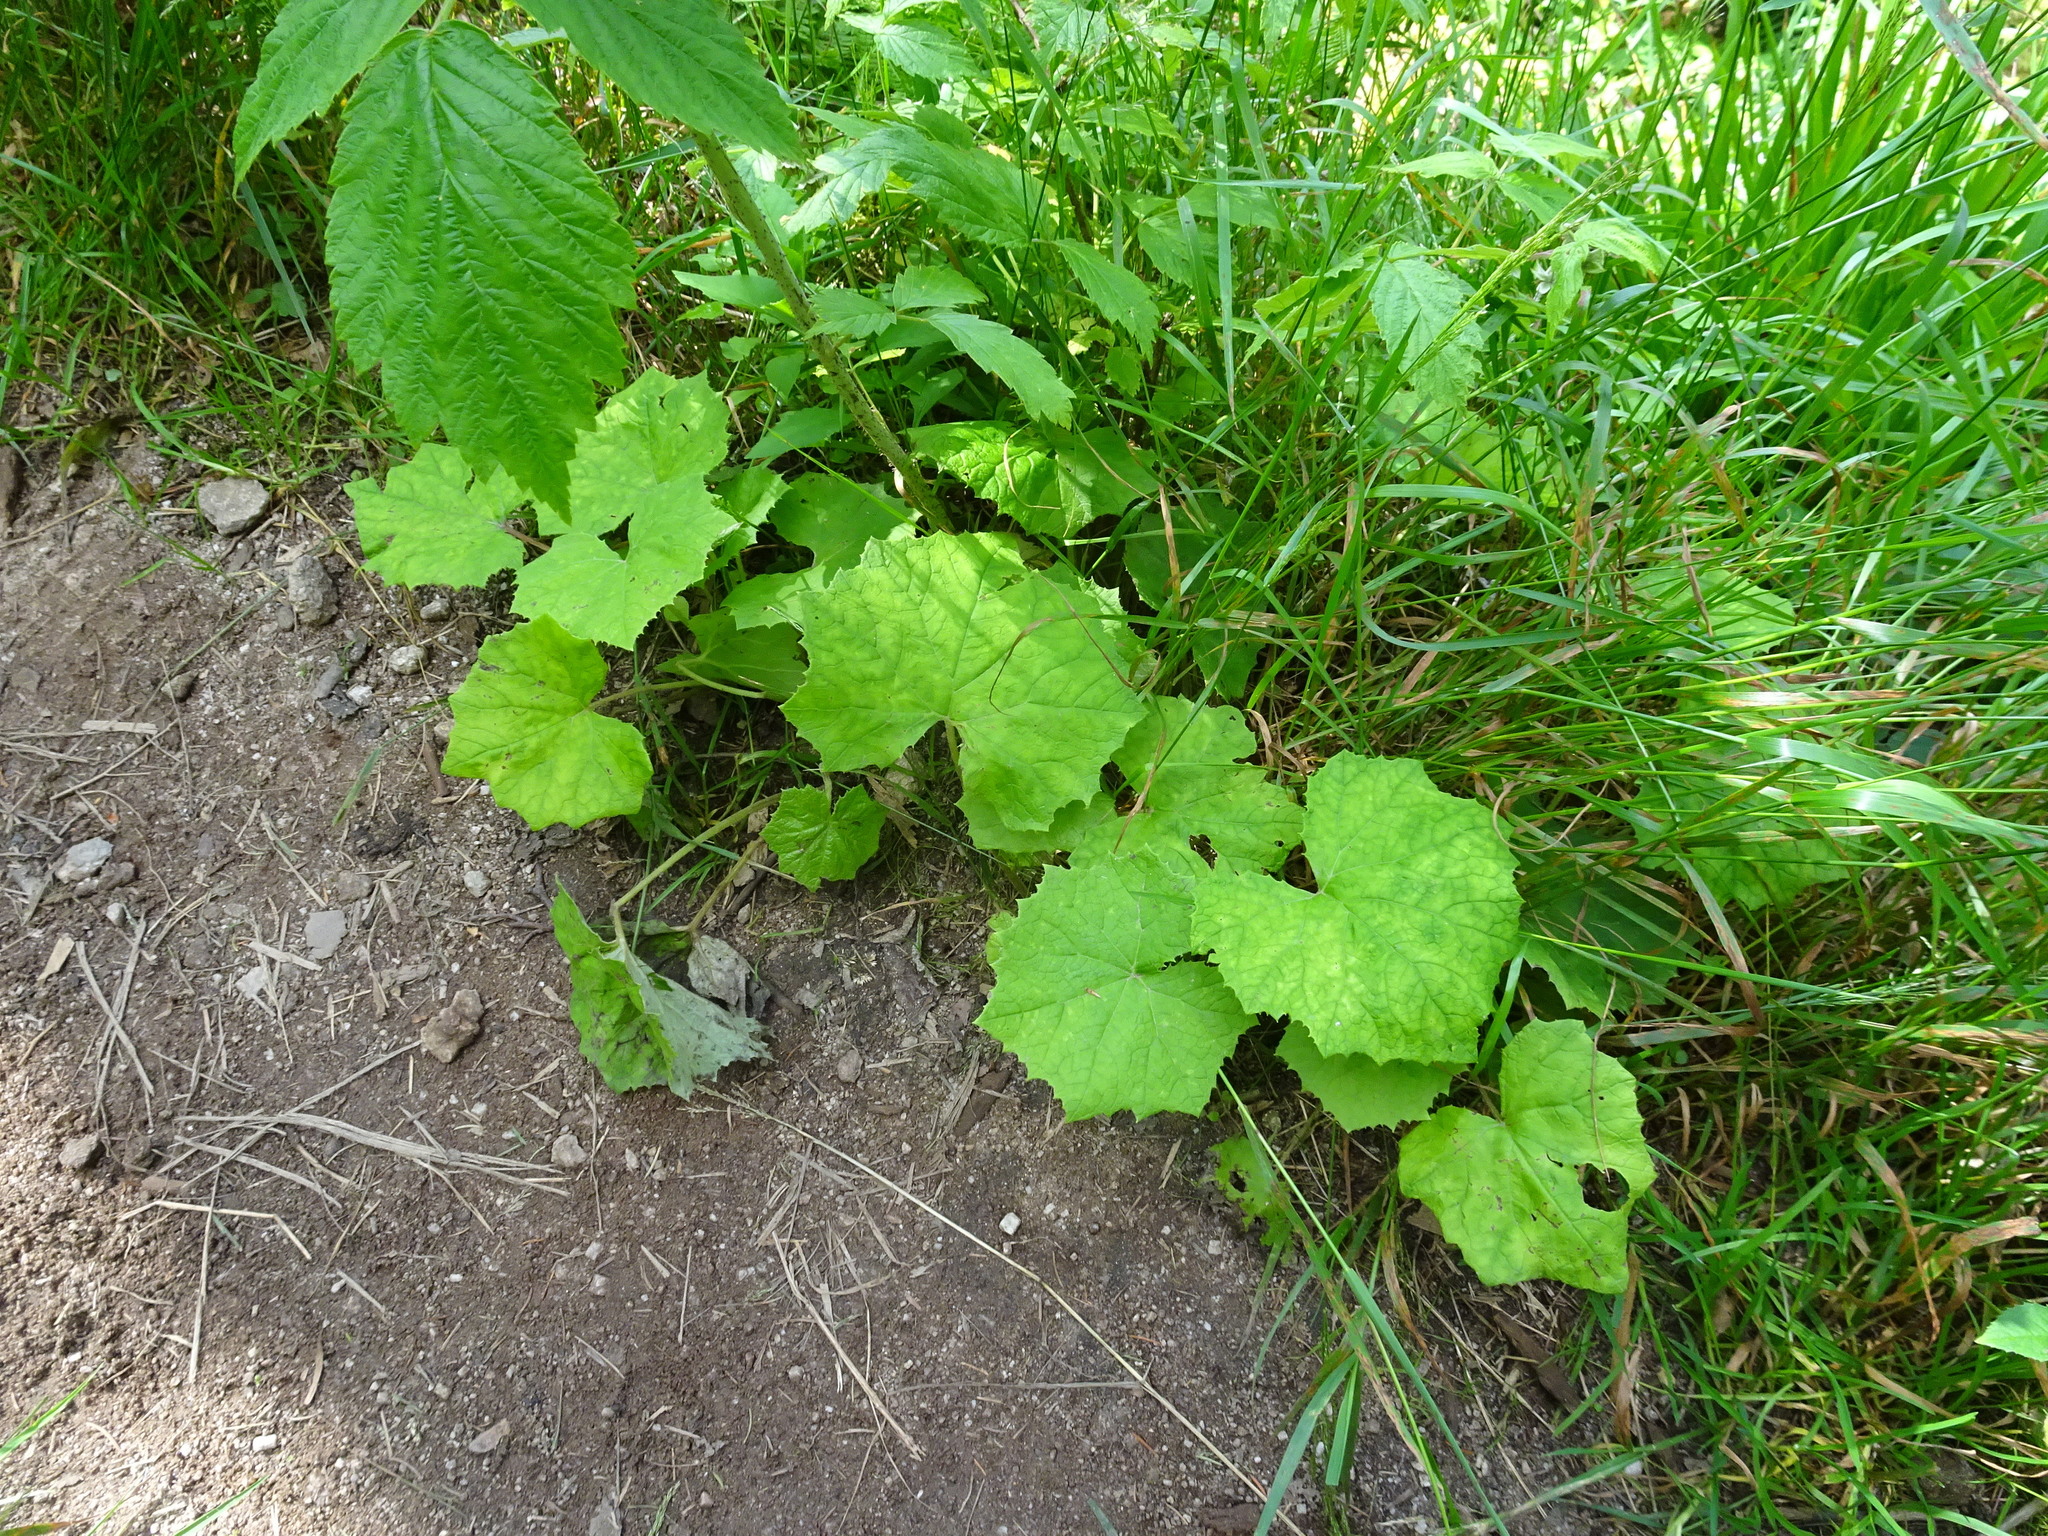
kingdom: Plantae
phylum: Tracheophyta
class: Magnoliopsida
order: Asterales
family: Asteraceae
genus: Tussilago
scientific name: Tussilago farfara
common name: Coltsfoot
